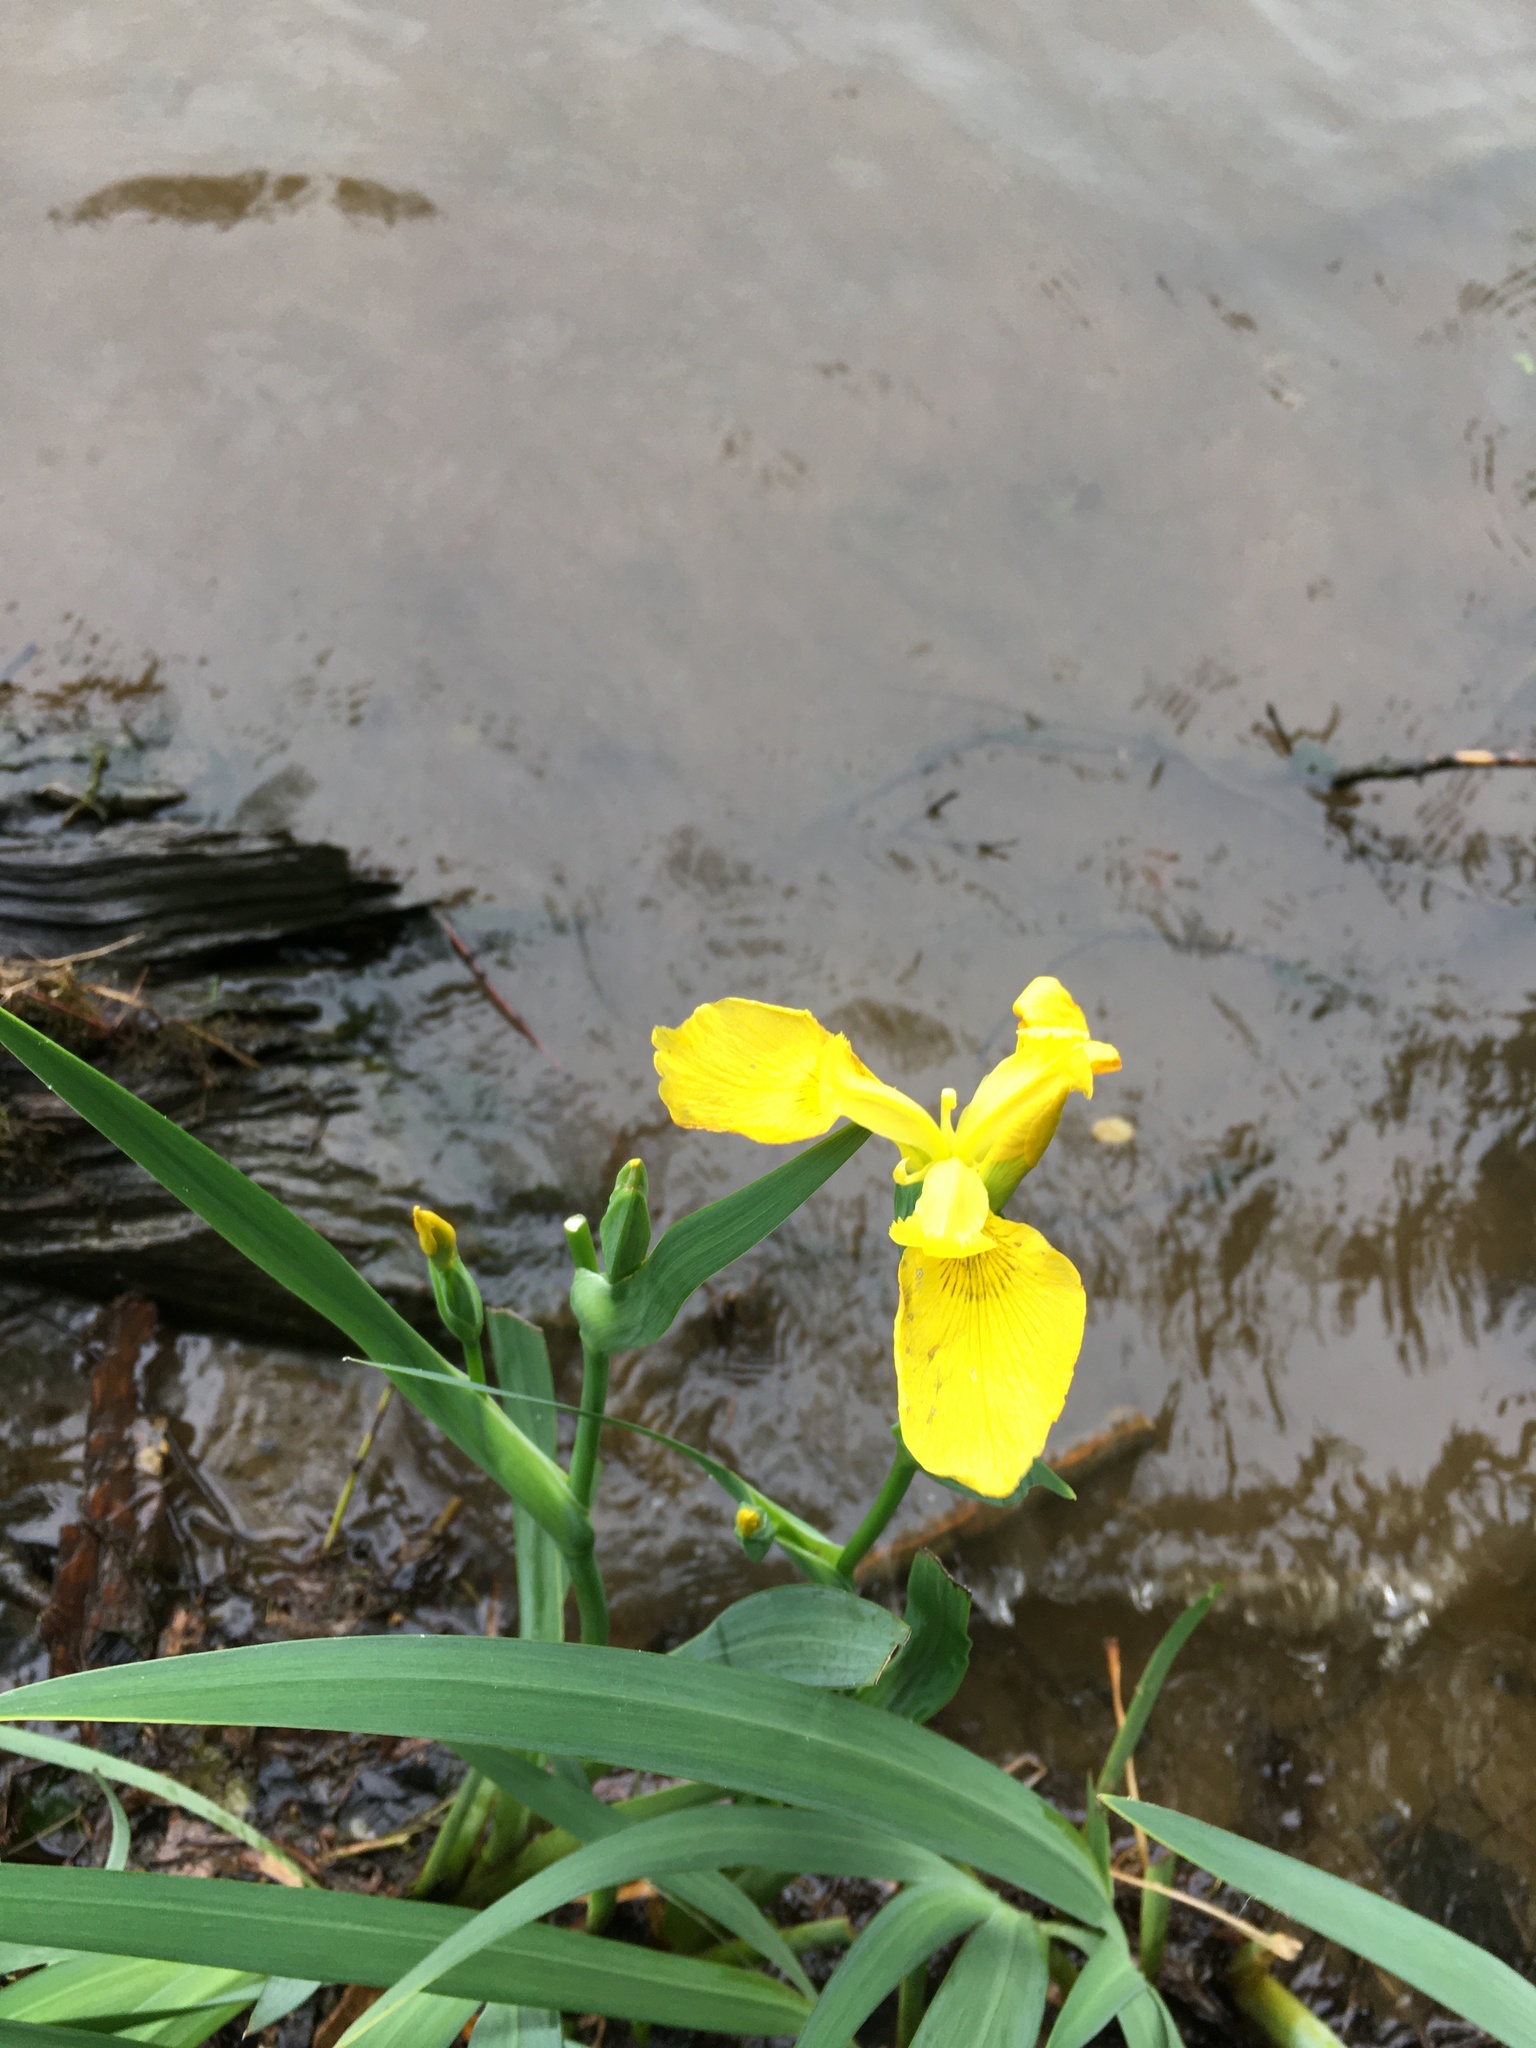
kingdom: Plantae
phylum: Tracheophyta
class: Liliopsida
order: Asparagales
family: Iridaceae
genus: Iris
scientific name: Iris pseudacorus
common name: Yellow flag
